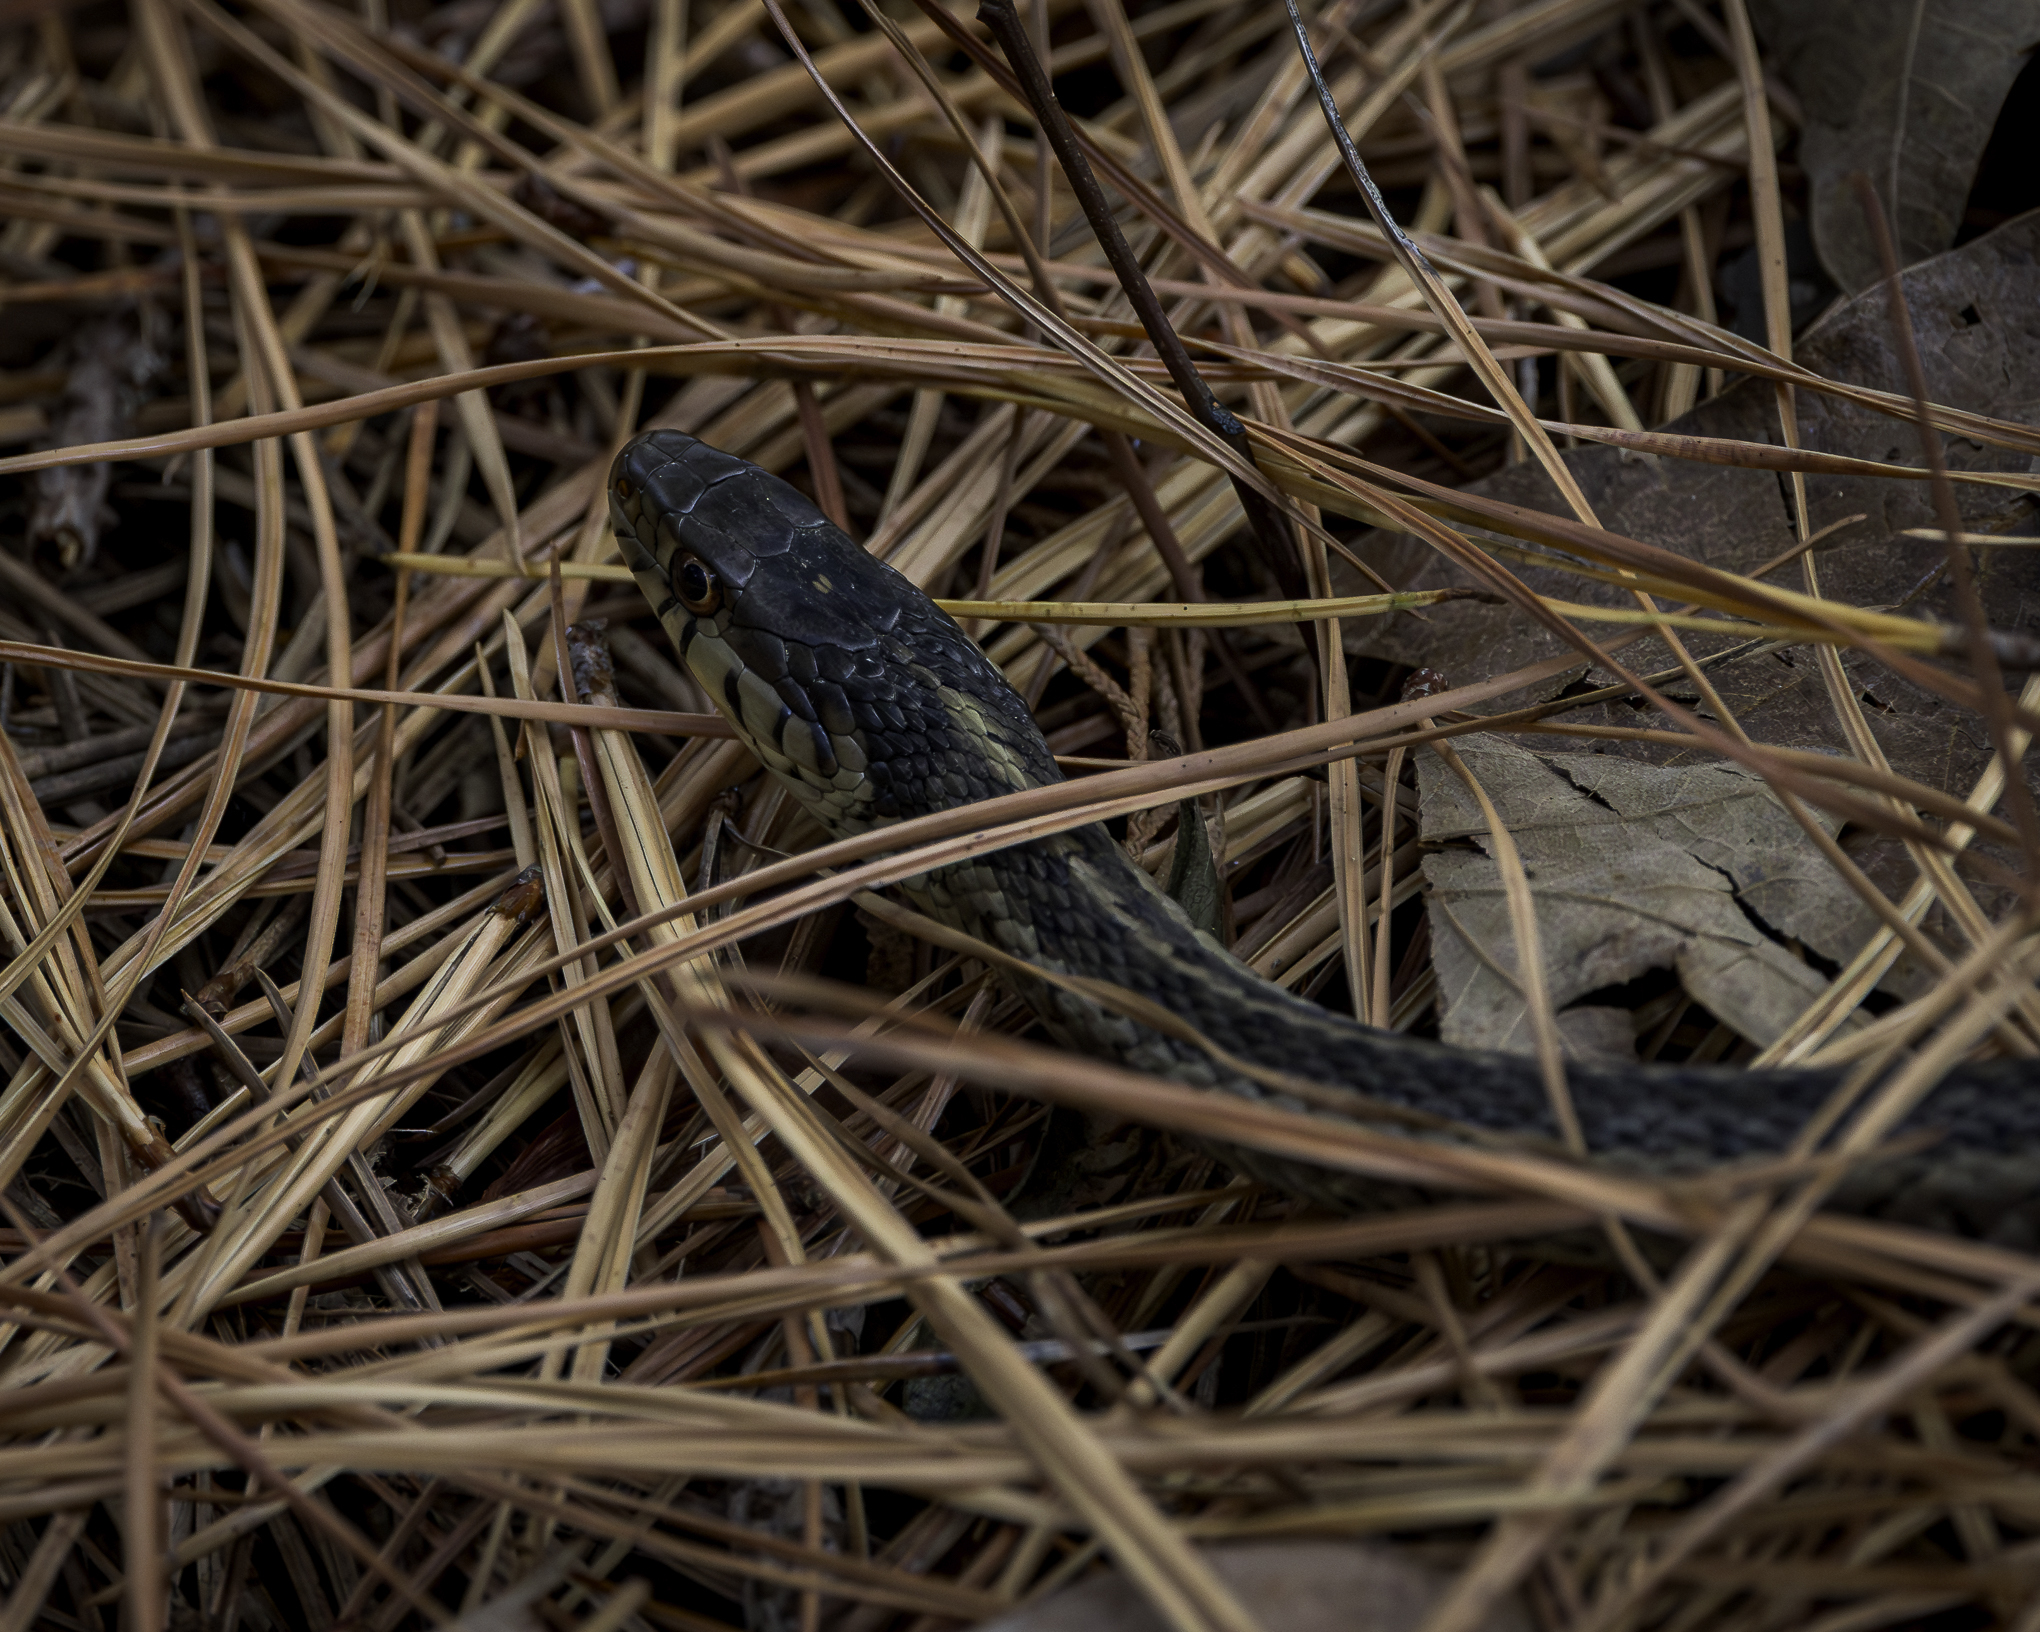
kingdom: Animalia
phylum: Chordata
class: Squamata
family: Colubridae
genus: Thamnophis
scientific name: Thamnophis sirtalis
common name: Common garter snake
